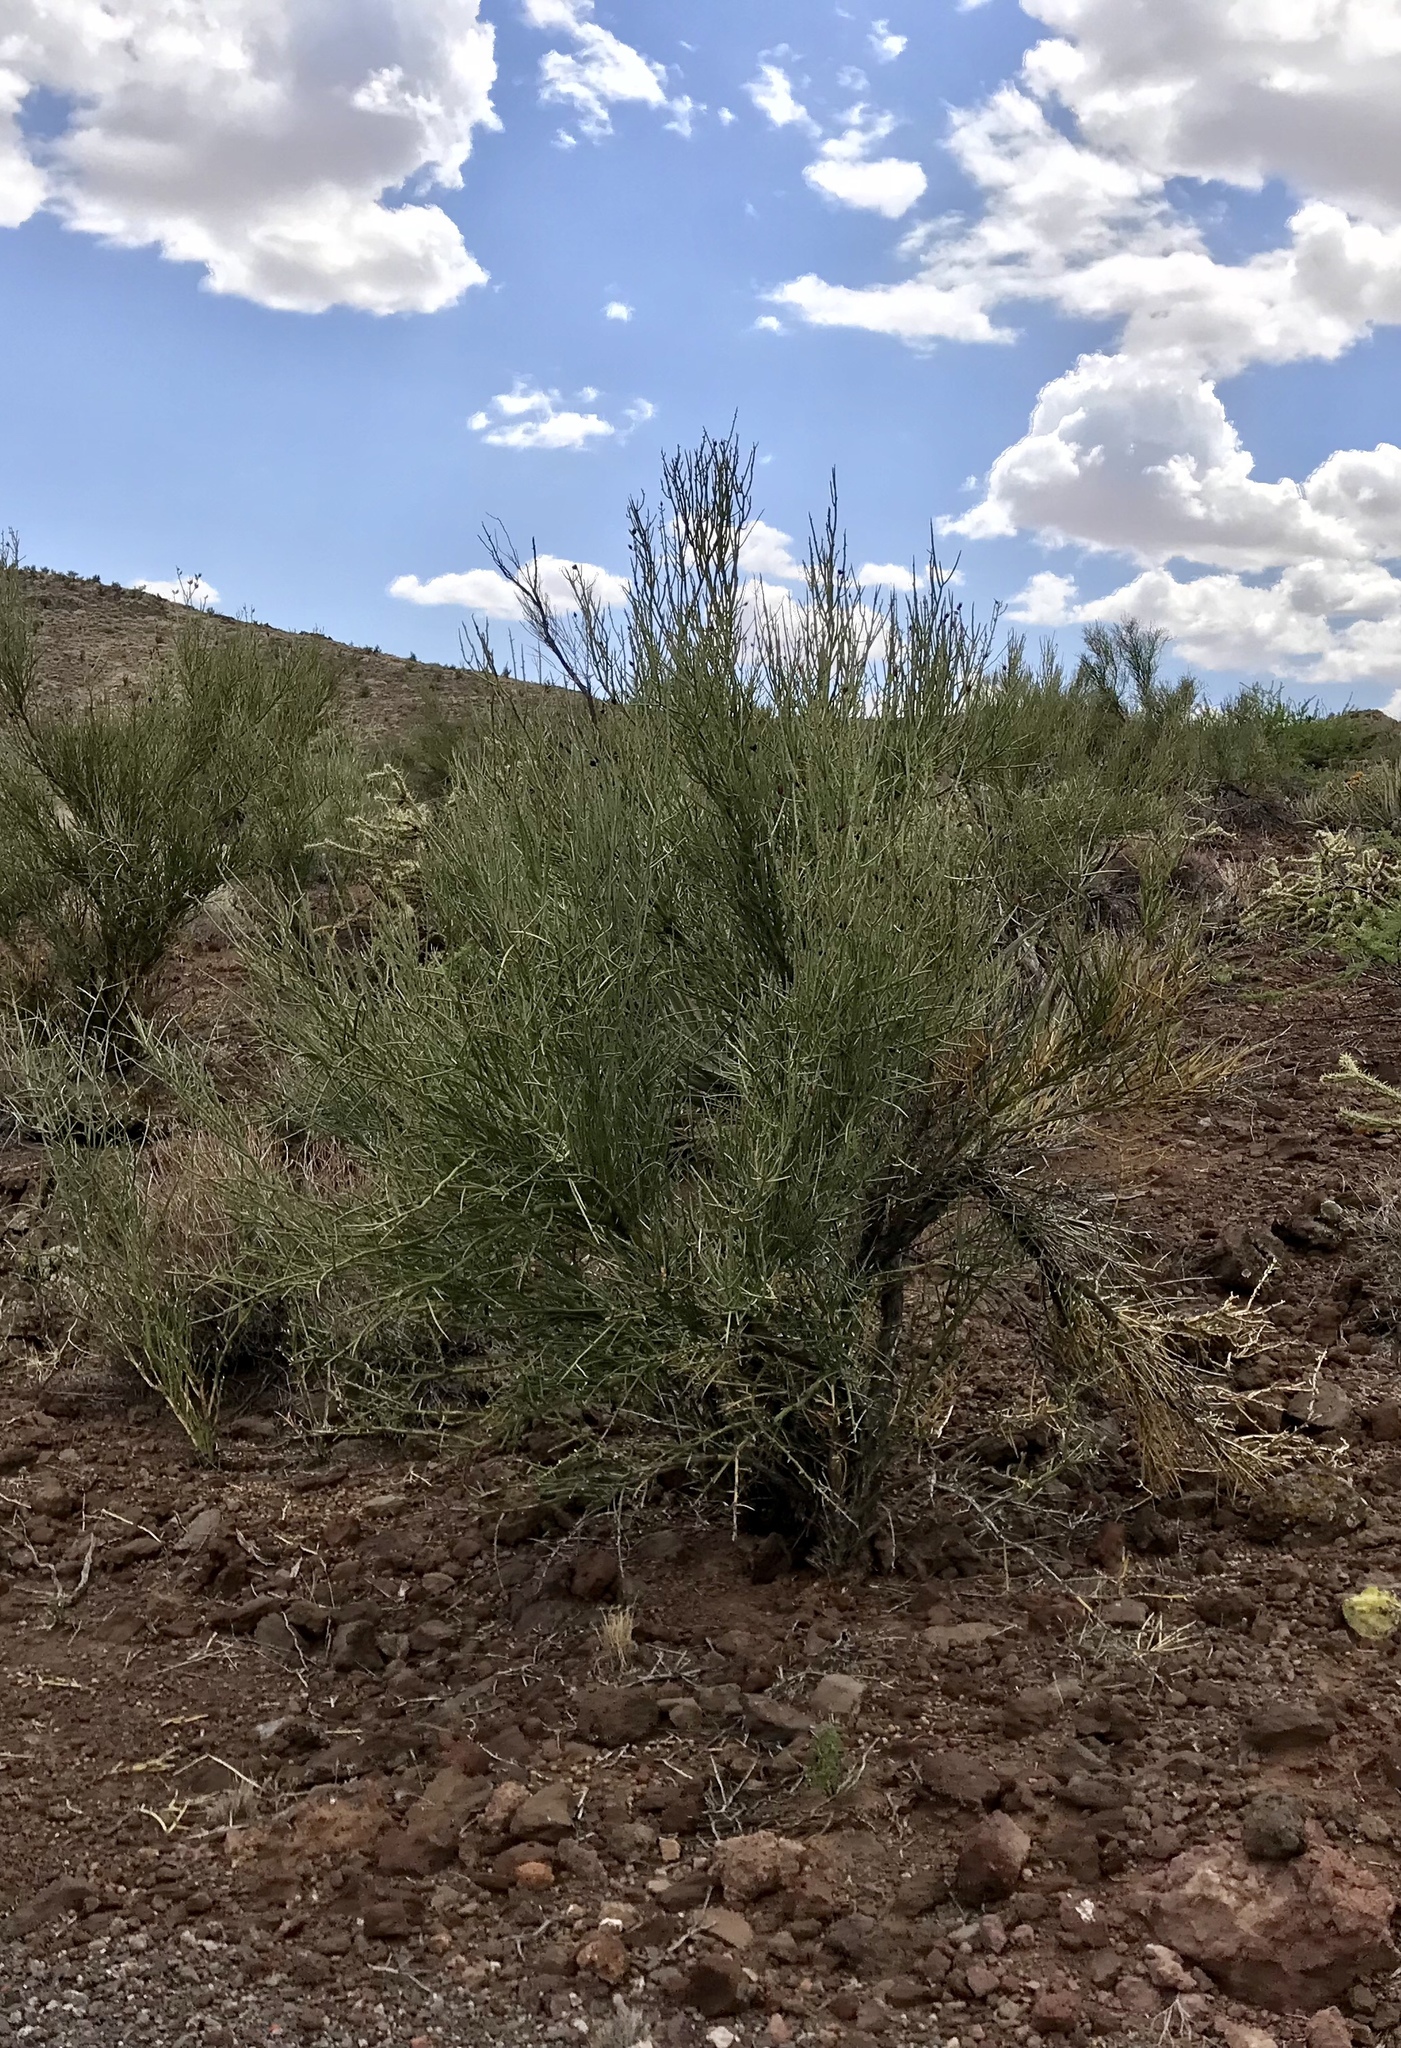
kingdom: Plantae
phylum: Tracheophyta
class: Magnoliopsida
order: Celastrales
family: Celastraceae
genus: Canotia
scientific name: Canotia holacantha
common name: Crucifixion thorns
